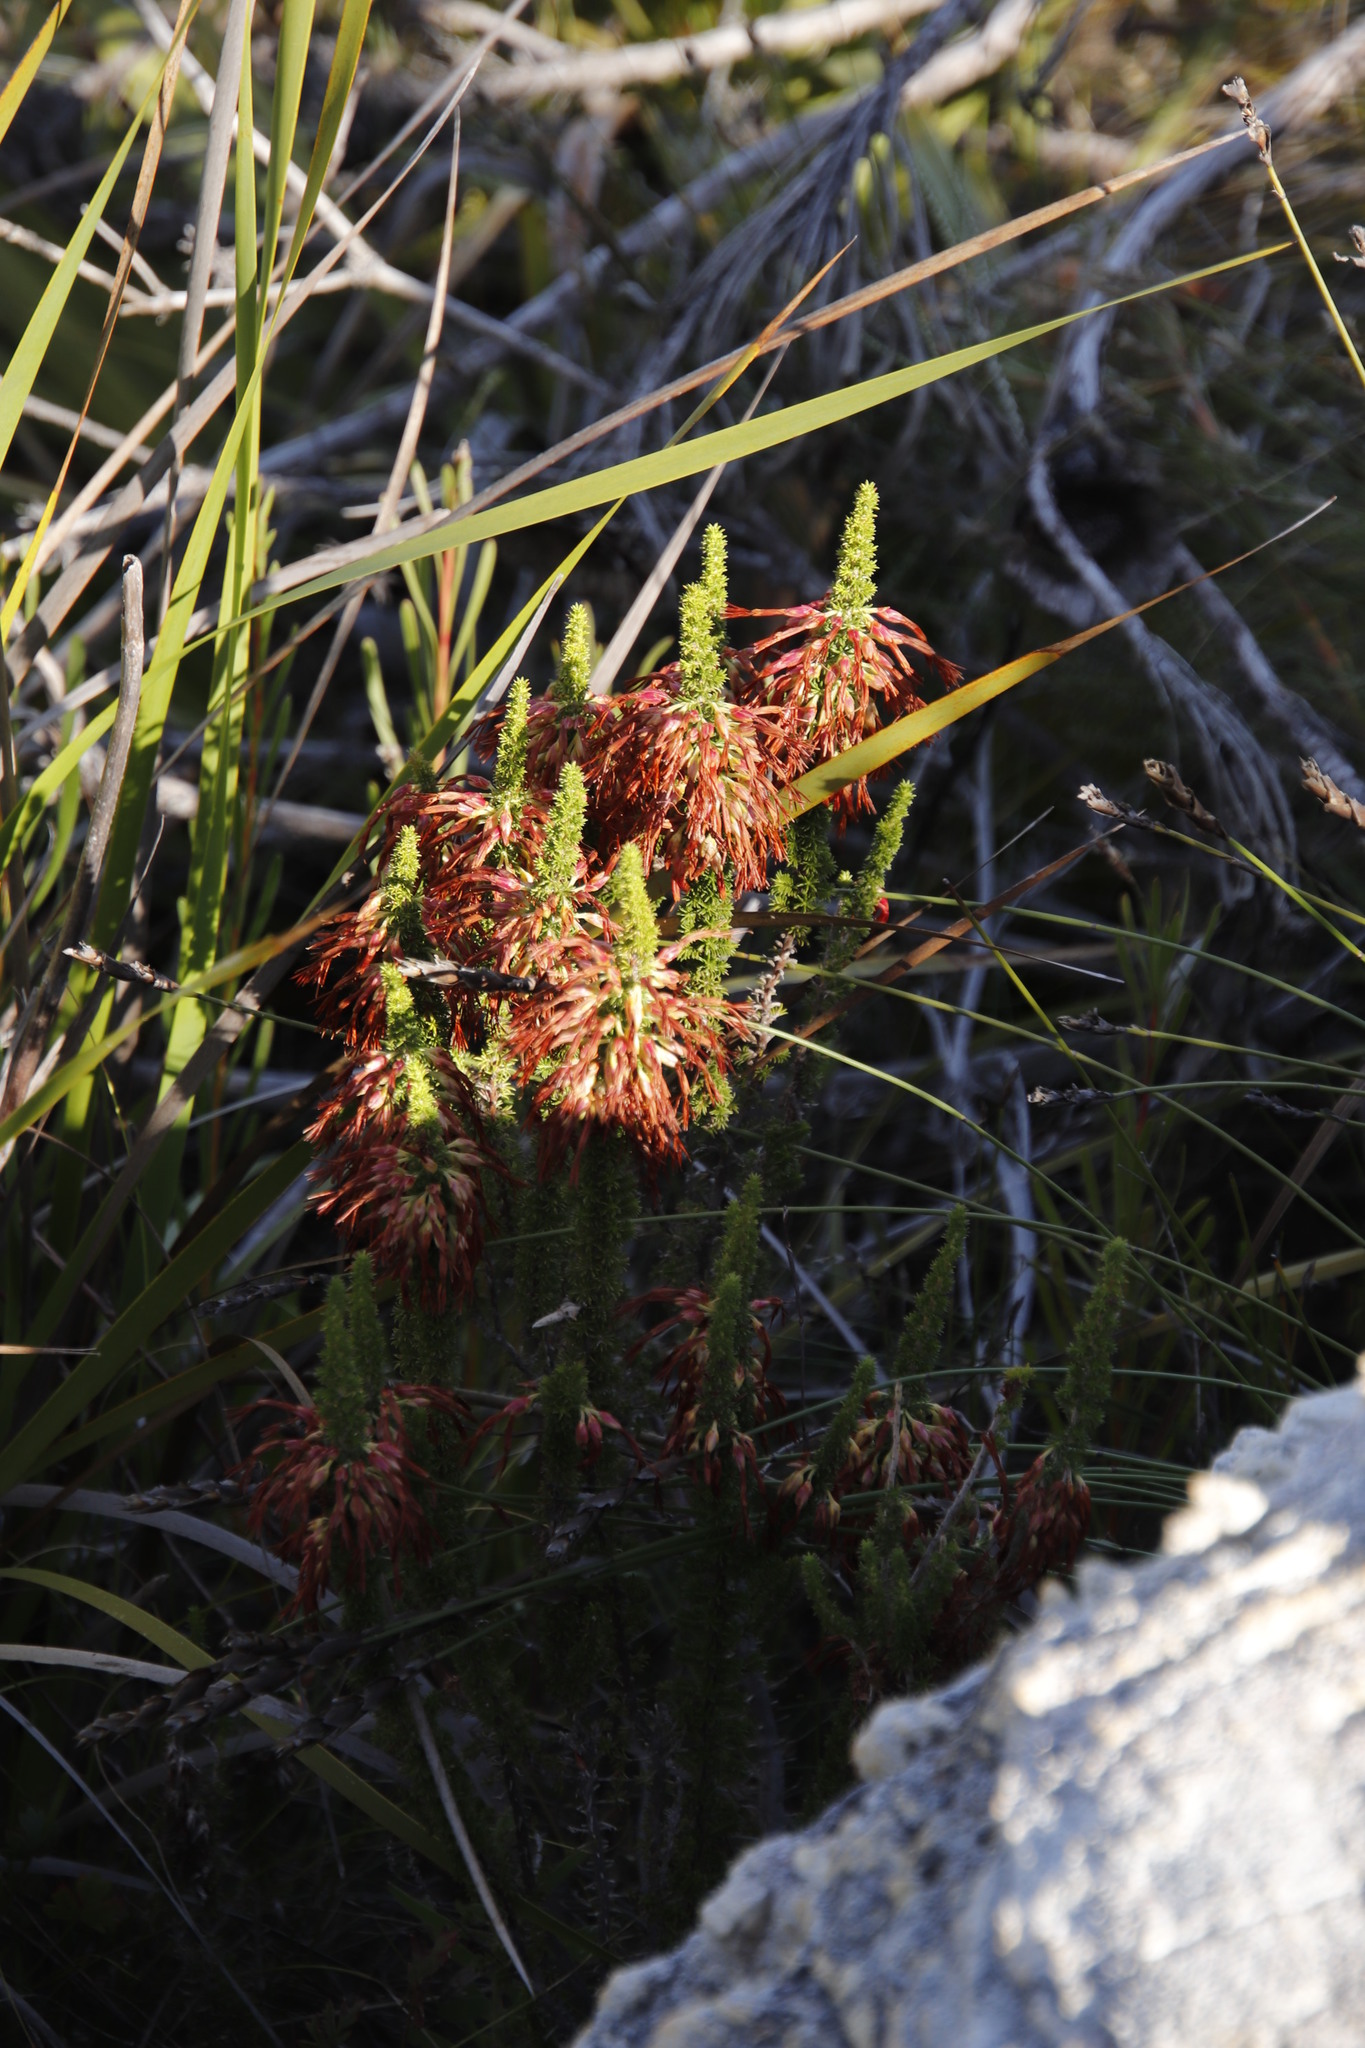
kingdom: Plantae
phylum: Tracheophyta
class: Magnoliopsida
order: Ericales
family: Ericaceae
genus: Erica
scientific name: Erica coccinea
